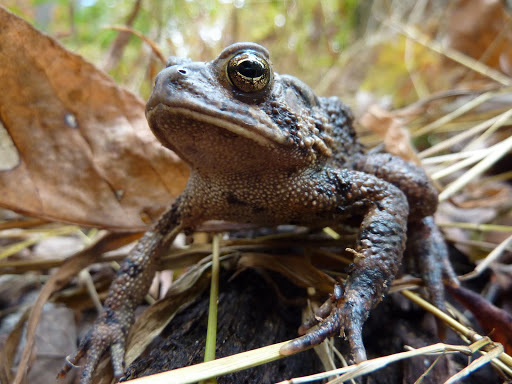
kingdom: Animalia
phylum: Chordata
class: Amphibia
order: Anura
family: Bufonidae
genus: Anaxyrus
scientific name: Anaxyrus americanus
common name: American toad
